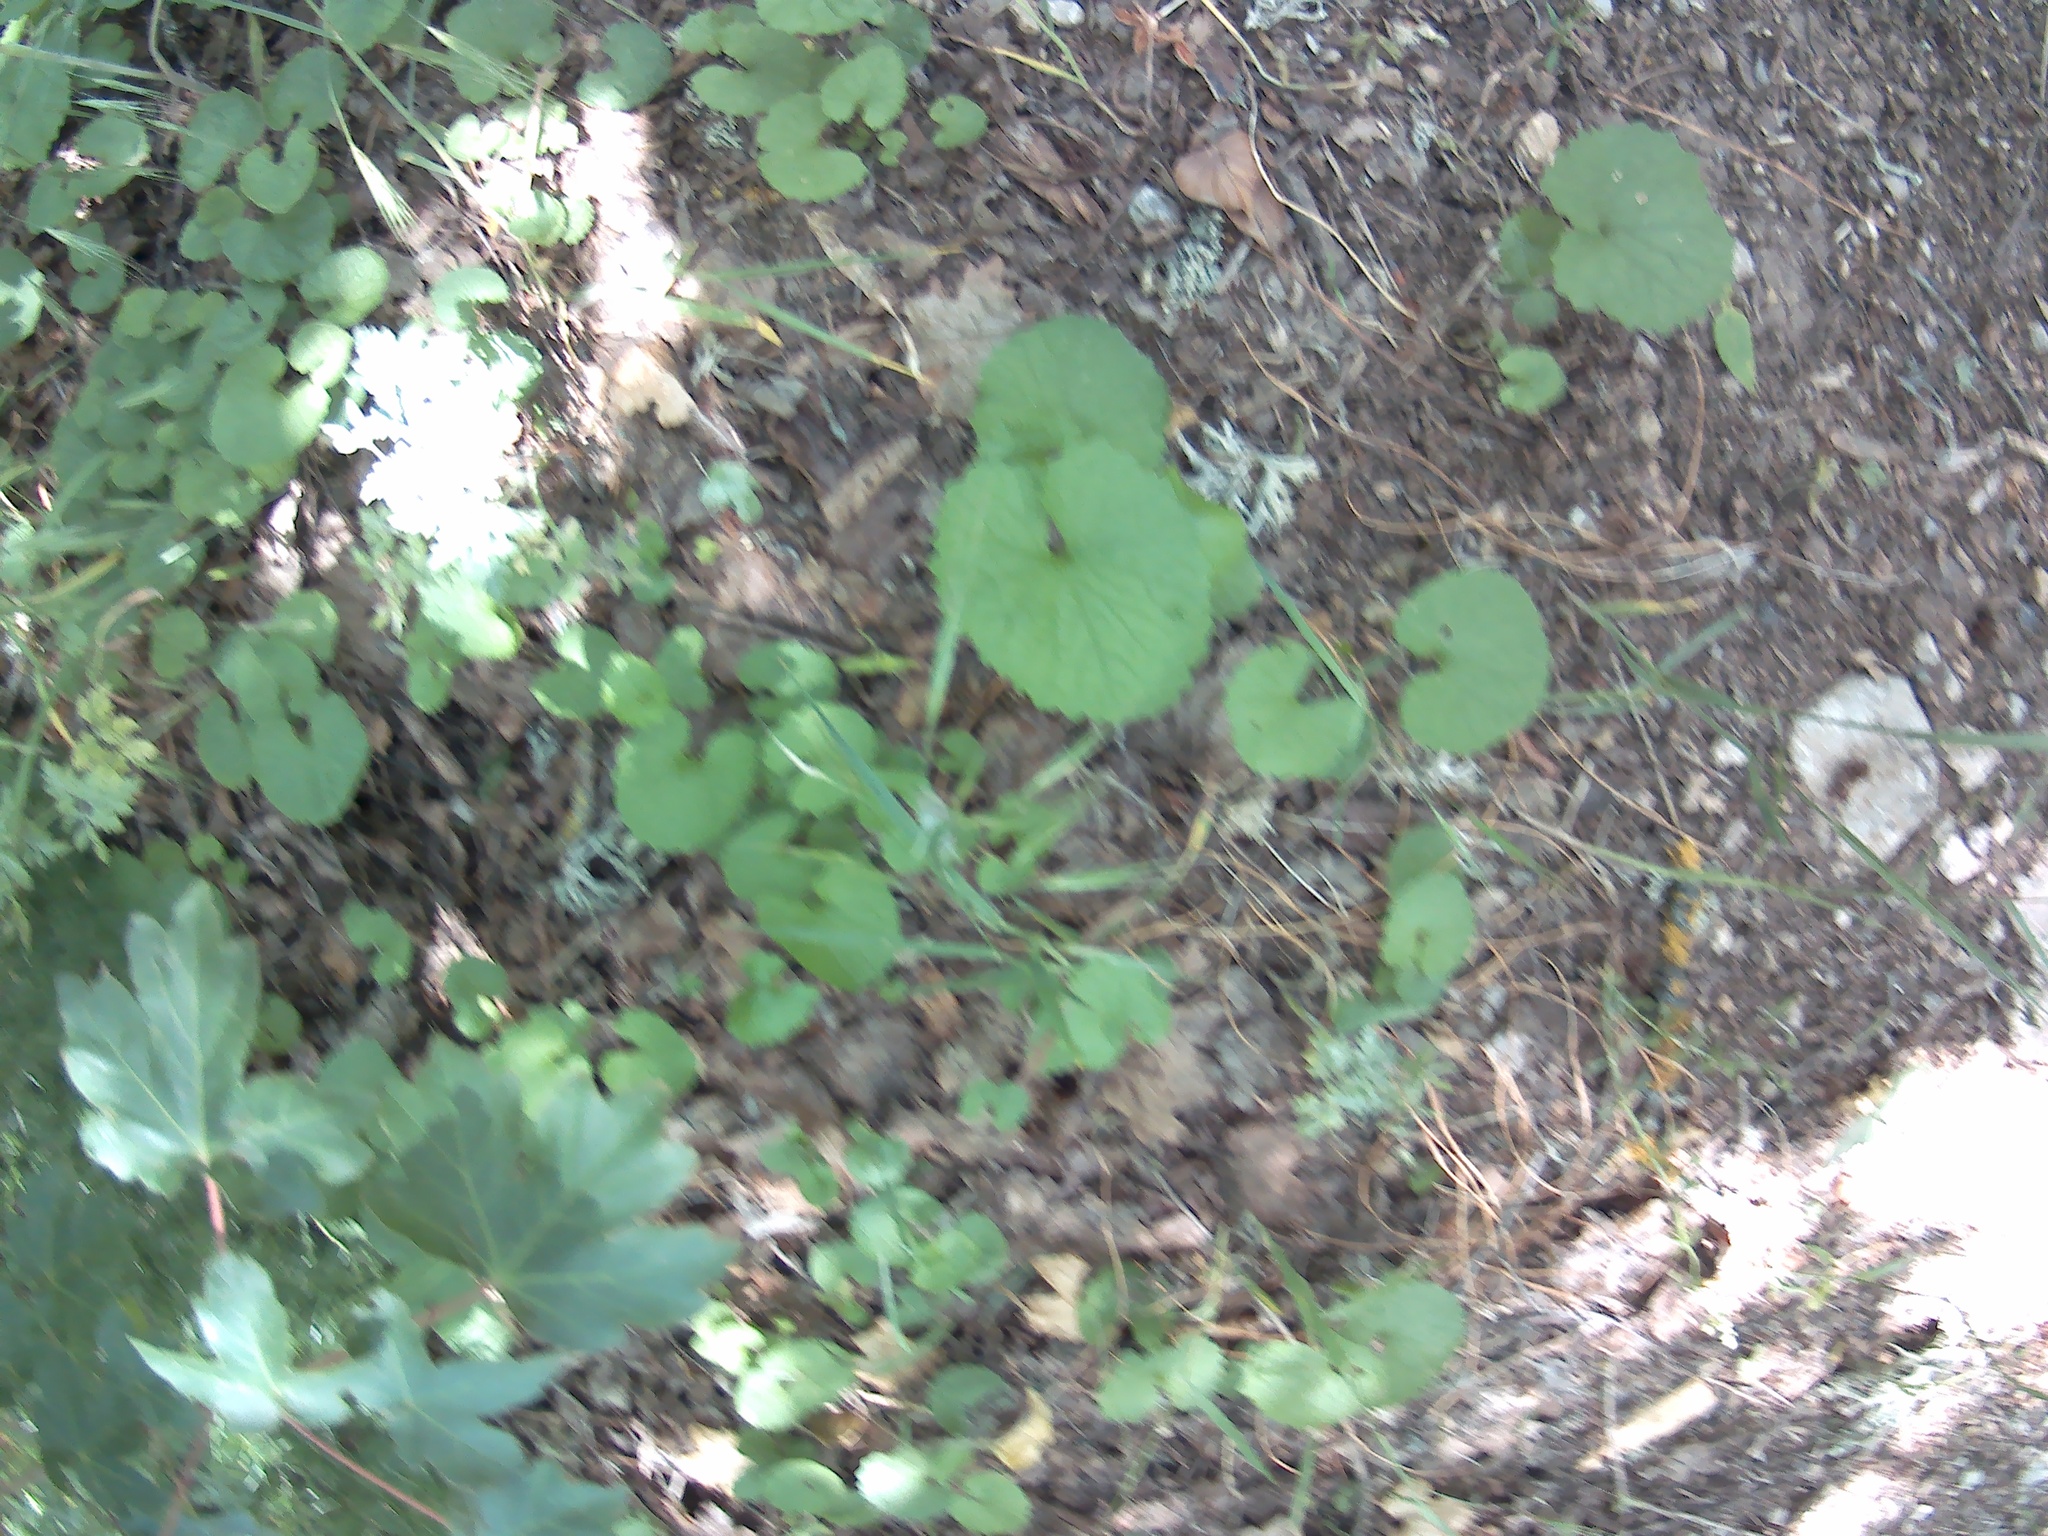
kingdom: Plantae
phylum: Tracheophyta
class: Magnoliopsida
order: Brassicales
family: Brassicaceae
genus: Alliaria
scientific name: Alliaria petiolata
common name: Garlic mustard
